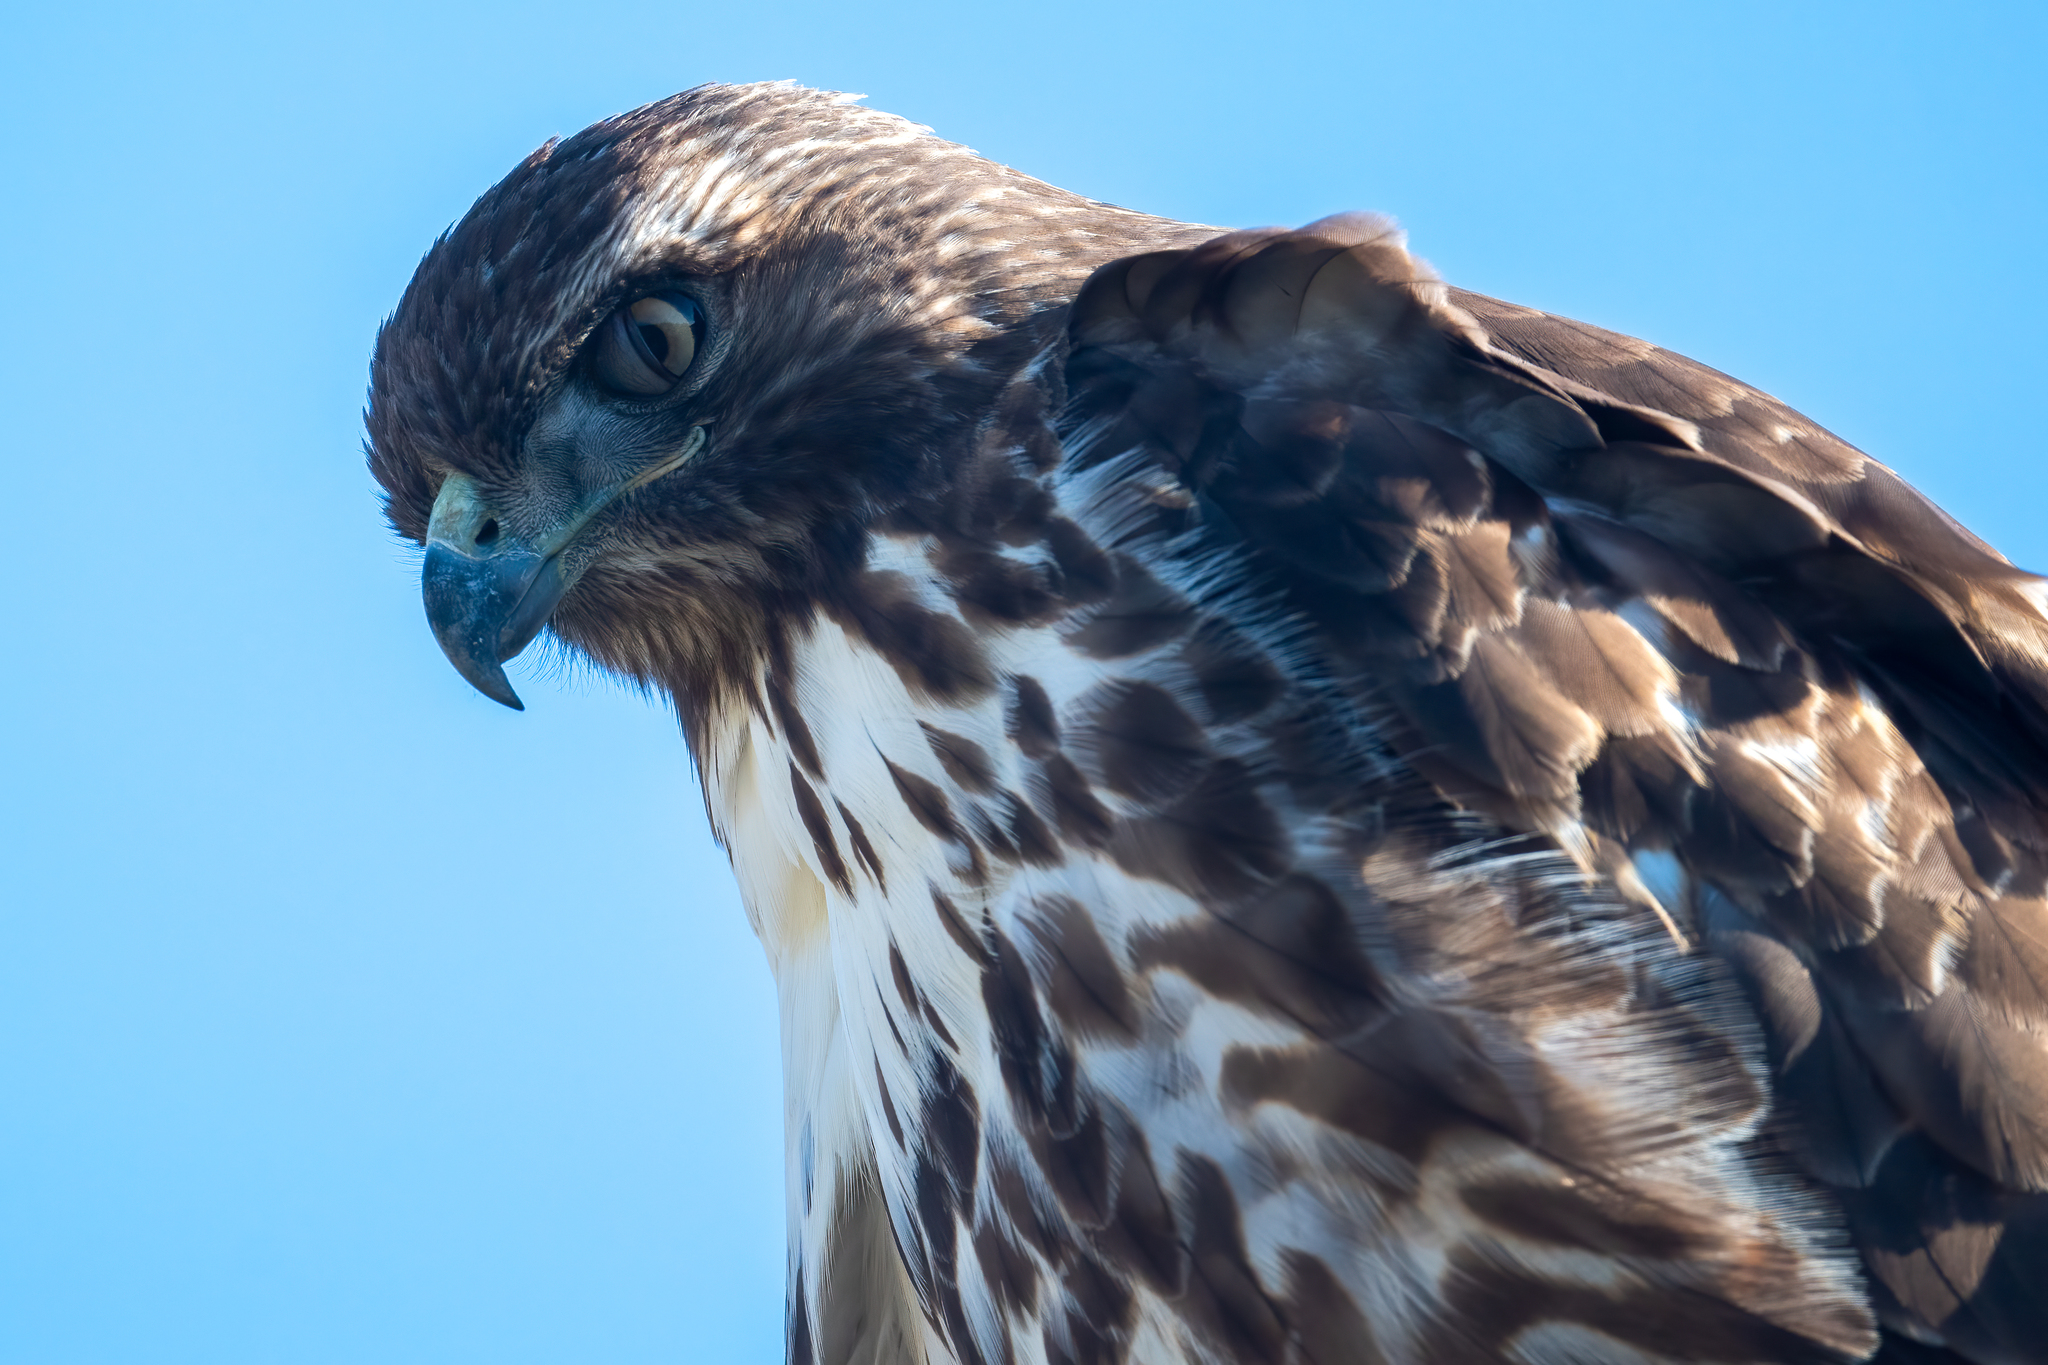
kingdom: Animalia
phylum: Chordata
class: Aves
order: Accipitriformes
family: Accipitridae
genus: Buteo
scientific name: Buteo jamaicensis
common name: Red-tailed hawk
